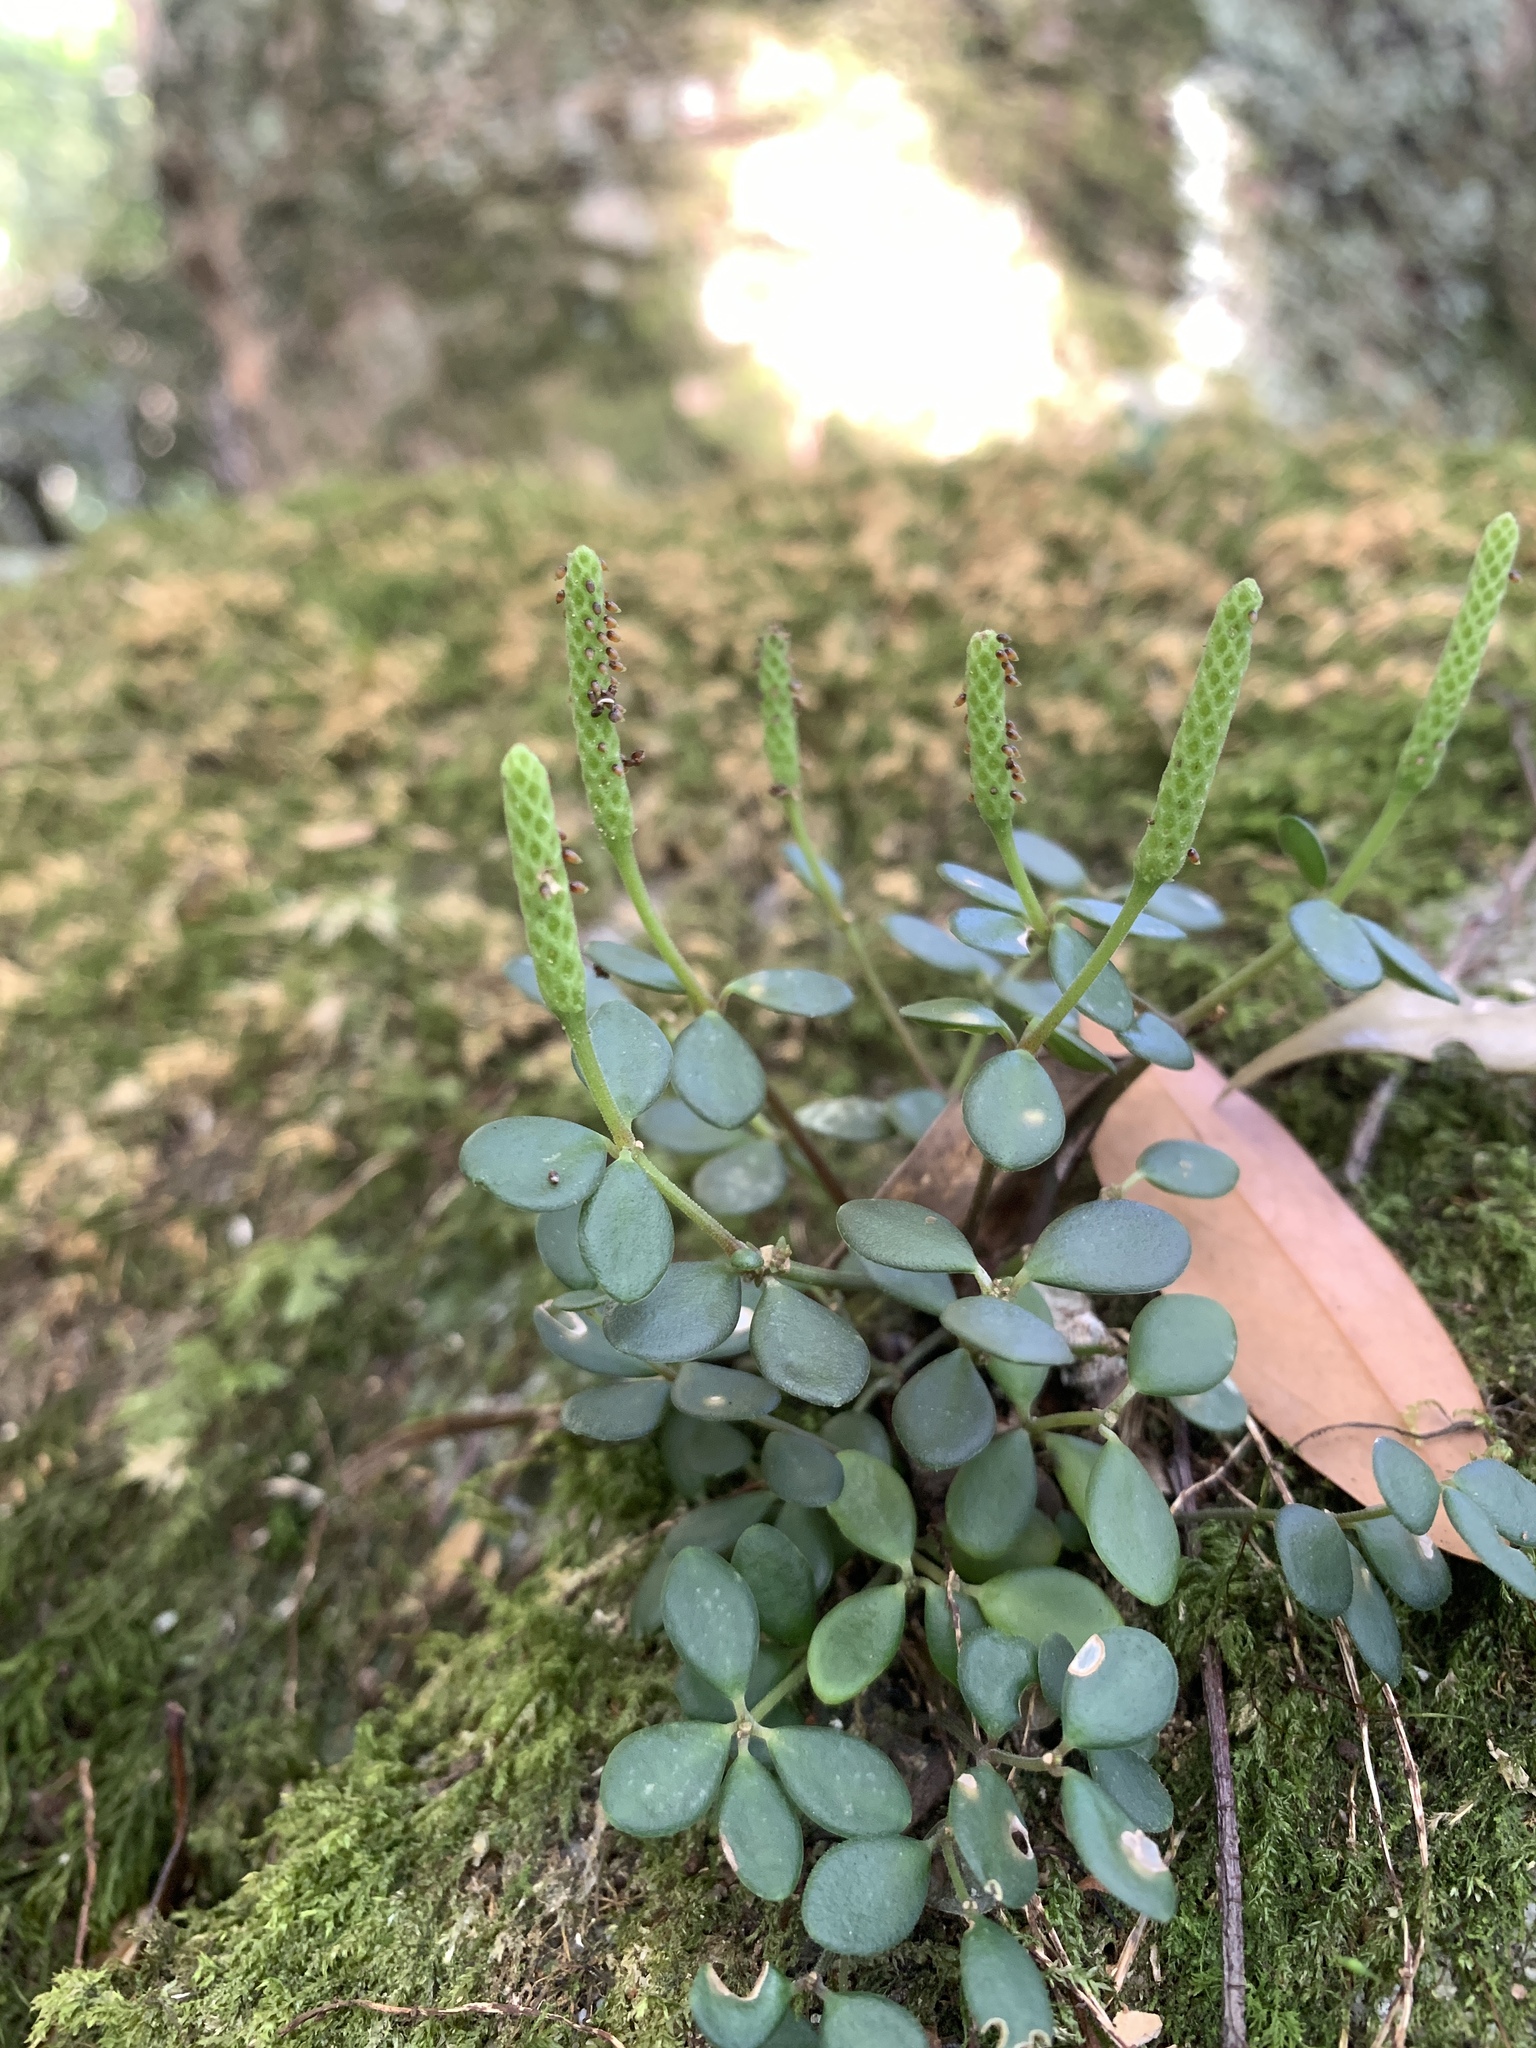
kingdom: Plantae
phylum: Tracheophyta
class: Magnoliopsida
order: Piperales
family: Piperaceae
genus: Peperomia
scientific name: Peperomia tetraphylla
